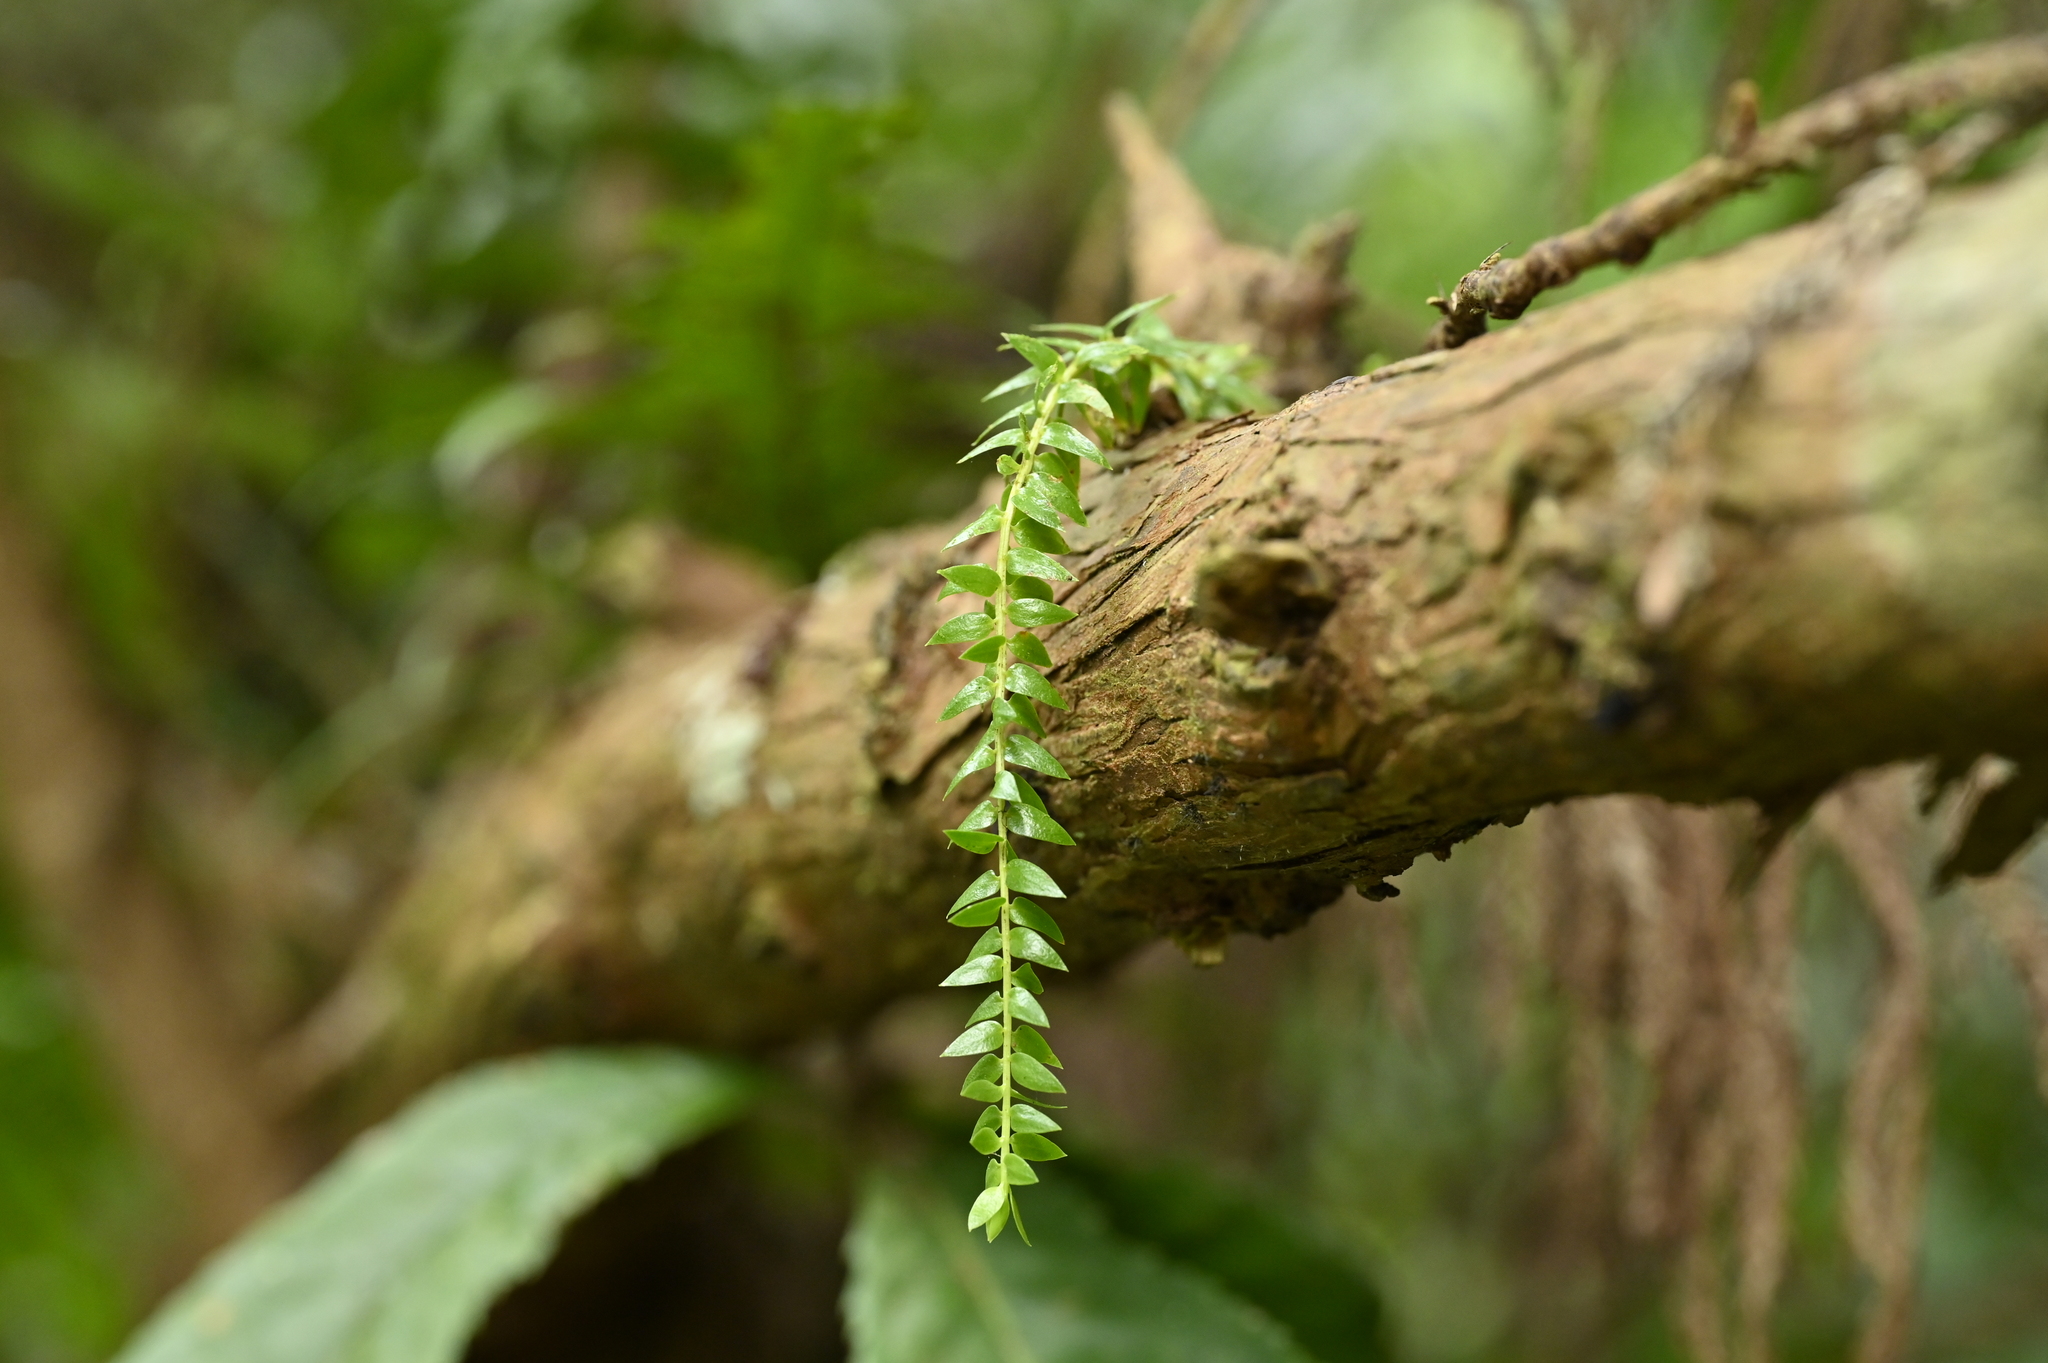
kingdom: Plantae
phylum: Tracheophyta
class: Lycopodiopsida
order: Lycopodiales
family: Lycopodiaceae
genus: Phlegmariurus
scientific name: Phlegmariurus phlegmaria
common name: Coarse tassel-fern
